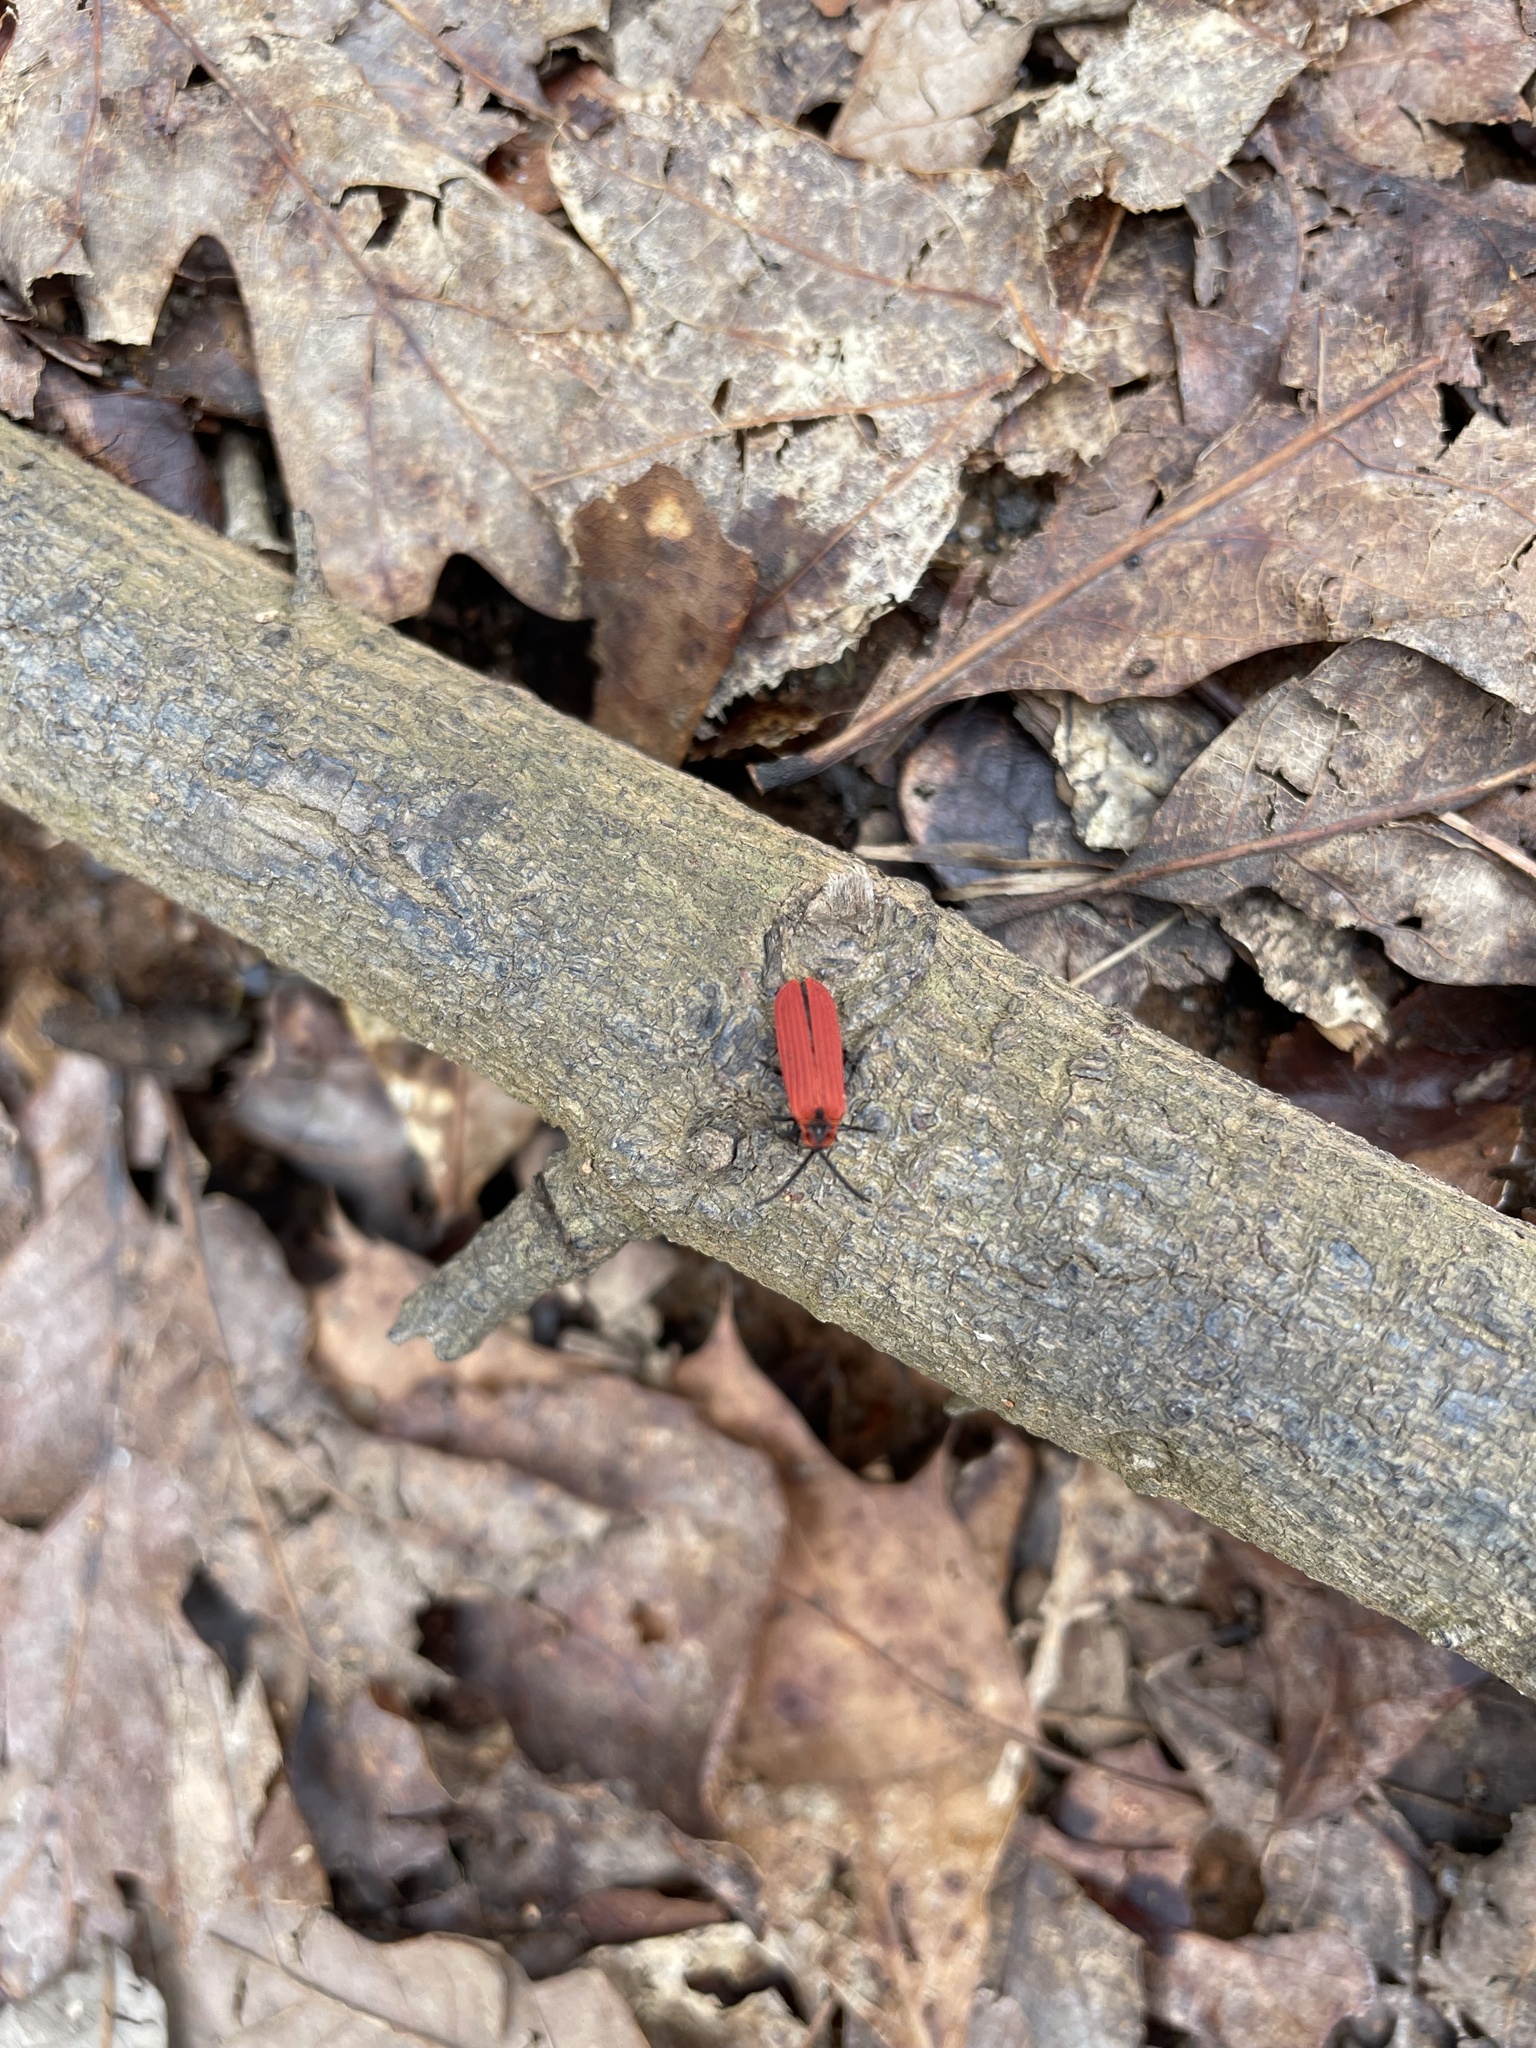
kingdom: Animalia
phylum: Arthropoda
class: Insecta
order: Coleoptera
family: Lycidae
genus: Dictyoptera
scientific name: Dictyoptera aurora
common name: Golden net-winged beetle
